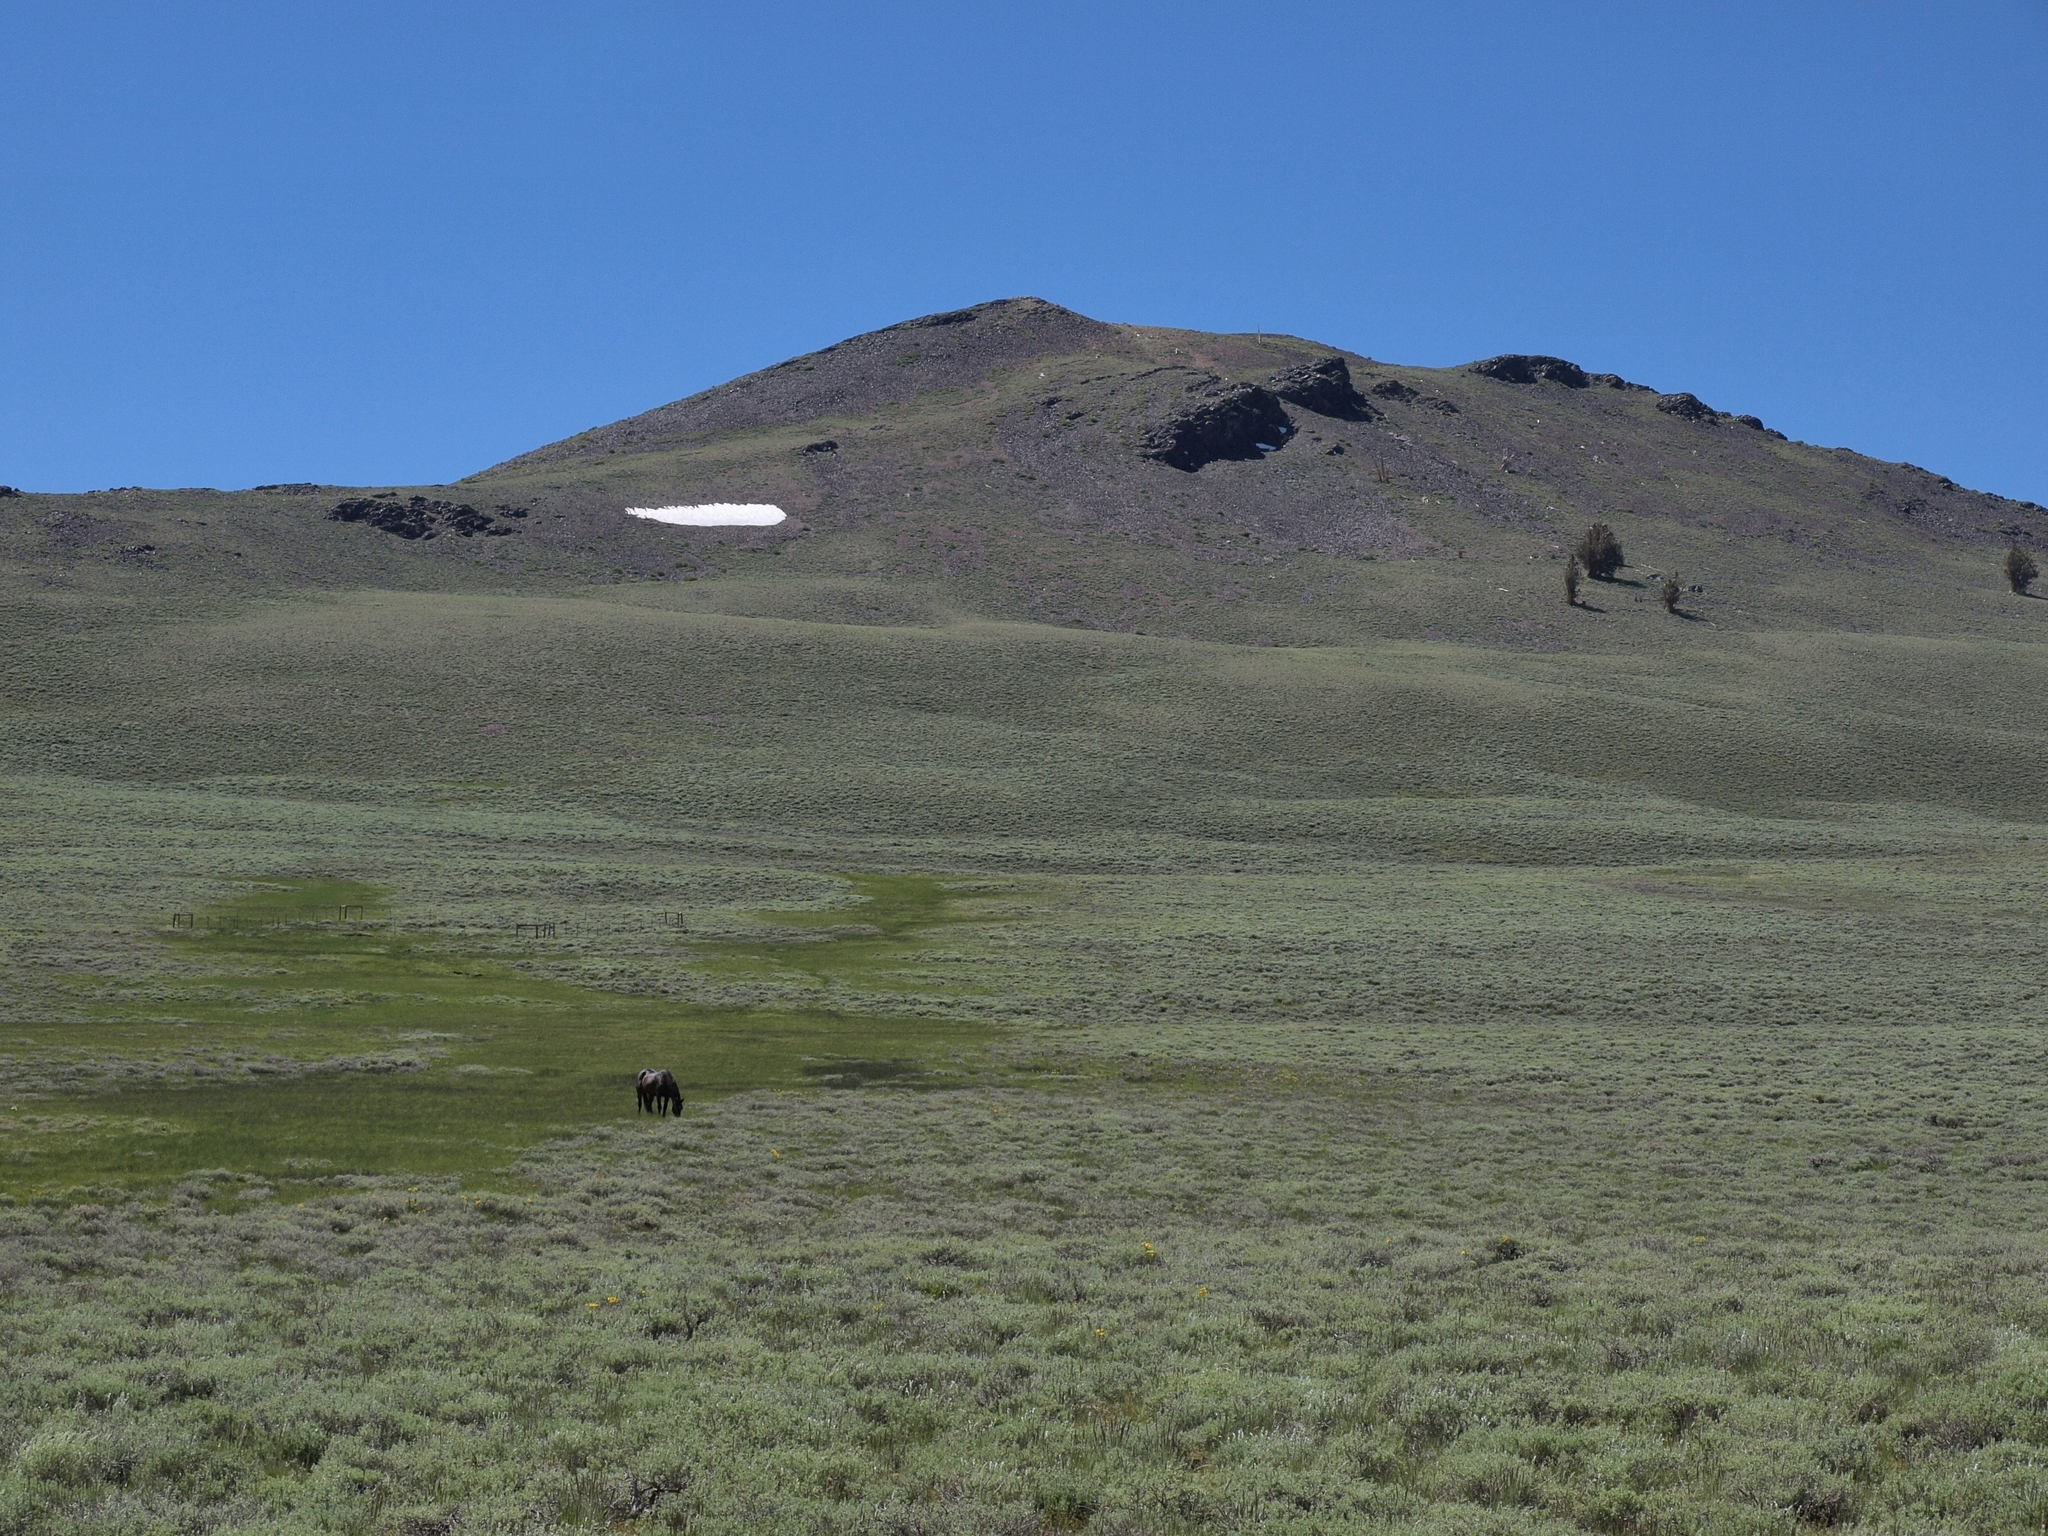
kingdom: Animalia
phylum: Chordata
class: Mammalia
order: Perissodactyla
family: Equidae
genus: Equus
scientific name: Equus caballus
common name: Horse
